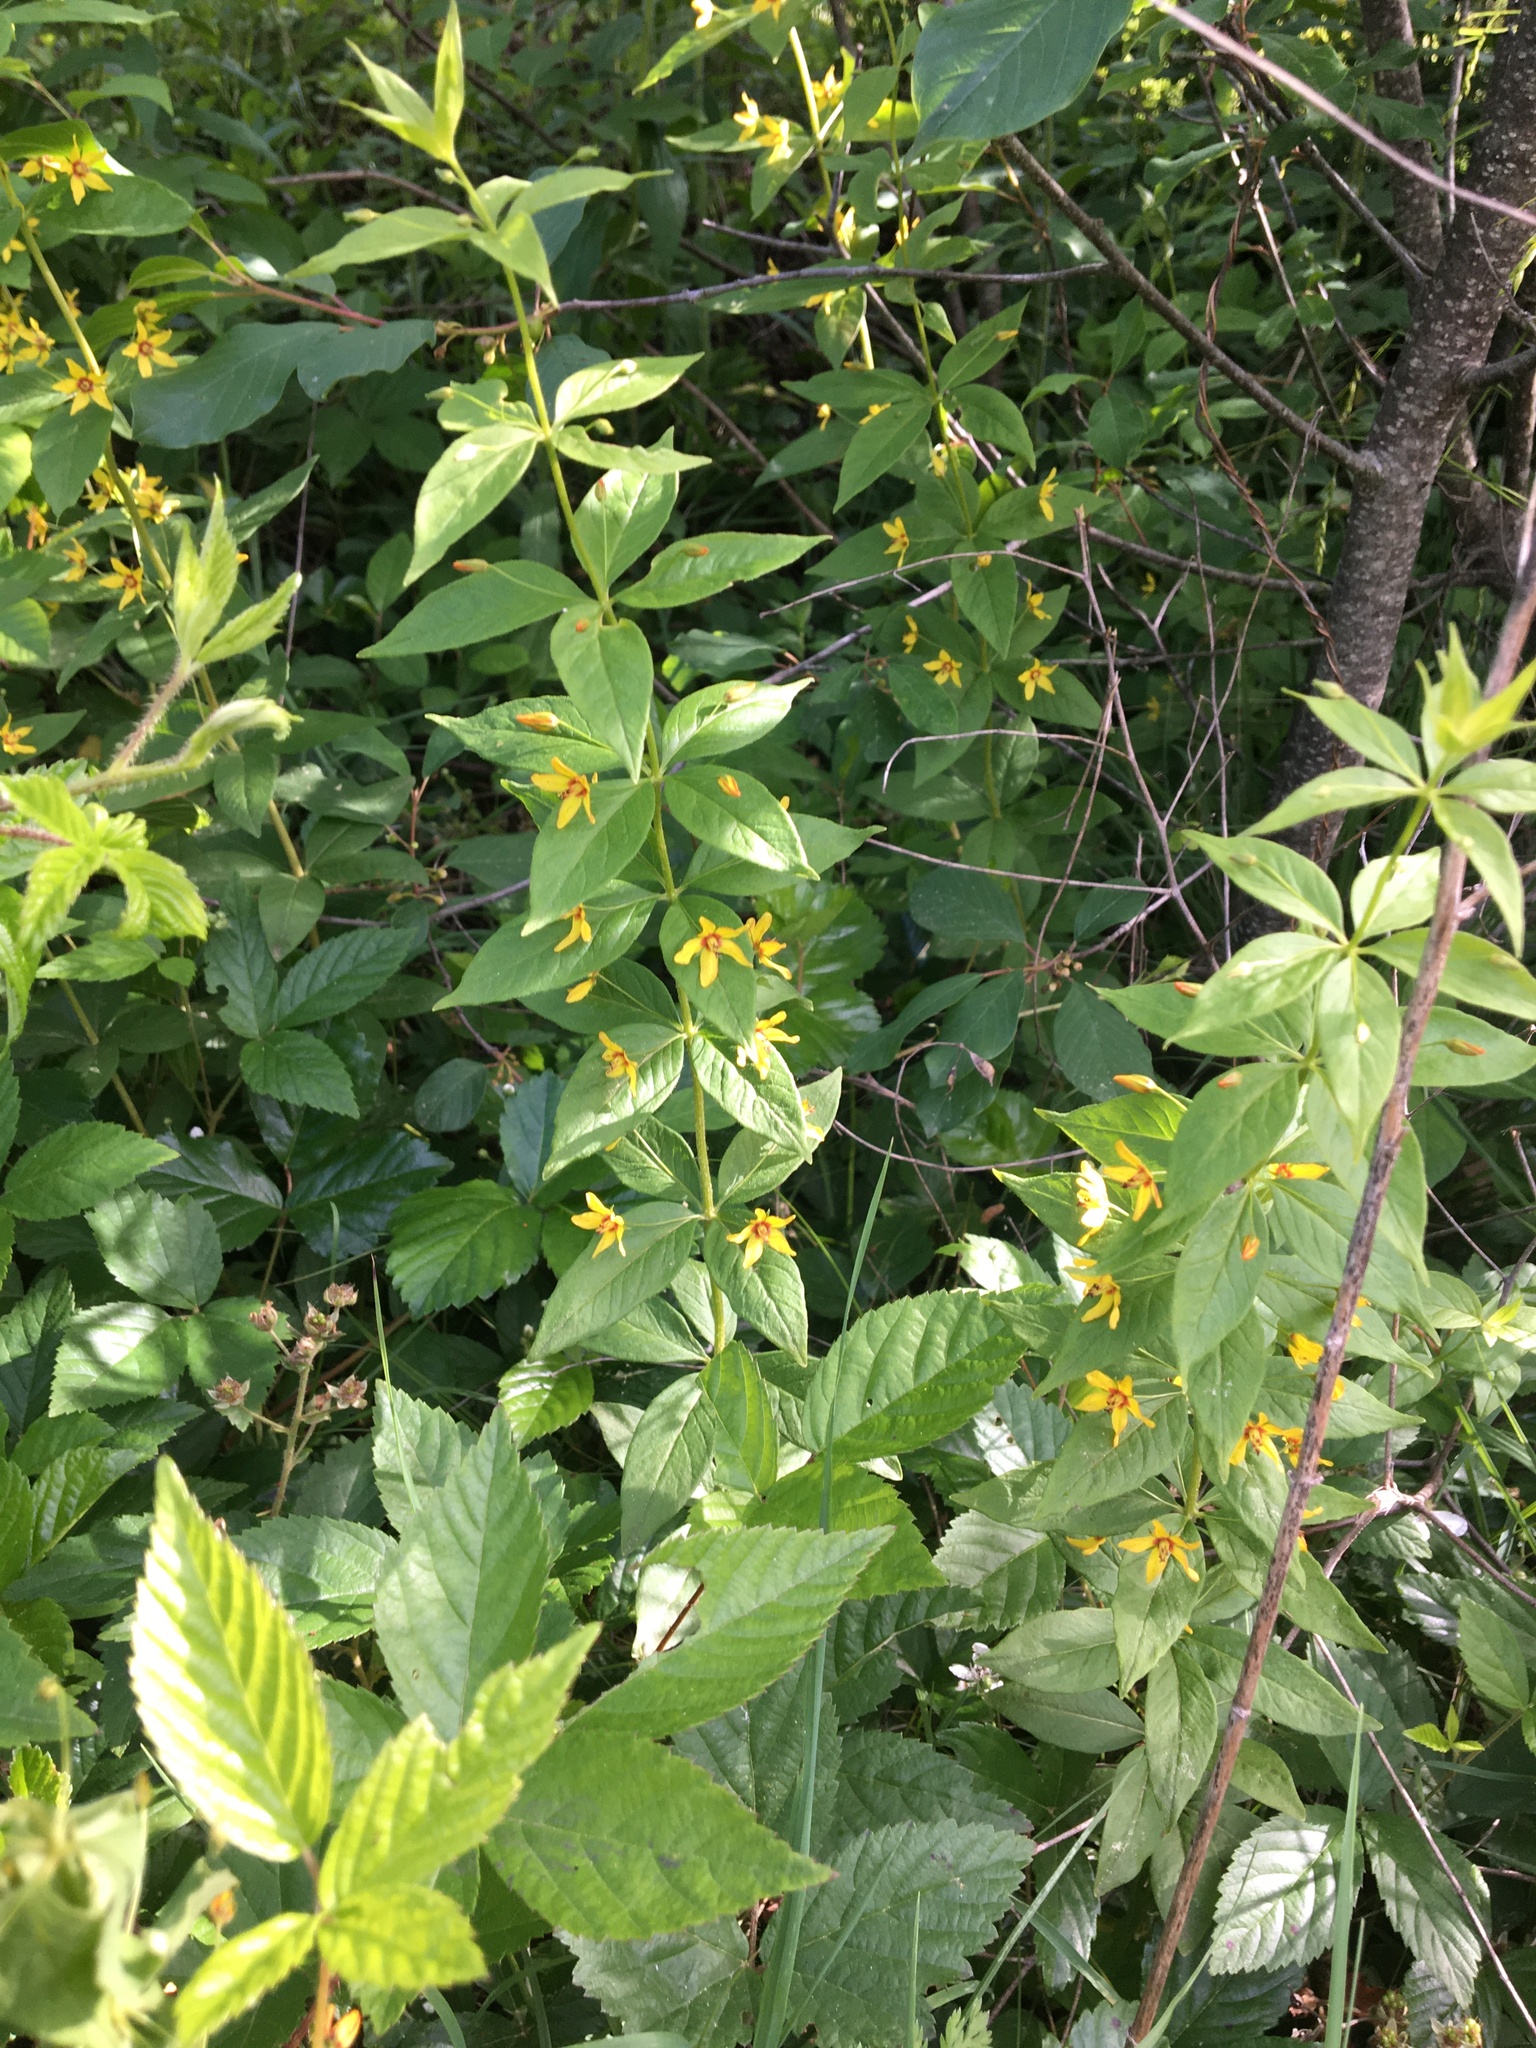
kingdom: Plantae
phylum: Tracheophyta
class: Magnoliopsida
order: Ericales
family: Primulaceae
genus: Lysimachia
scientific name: Lysimachia quadrifolia
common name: Whorled loosestrife
